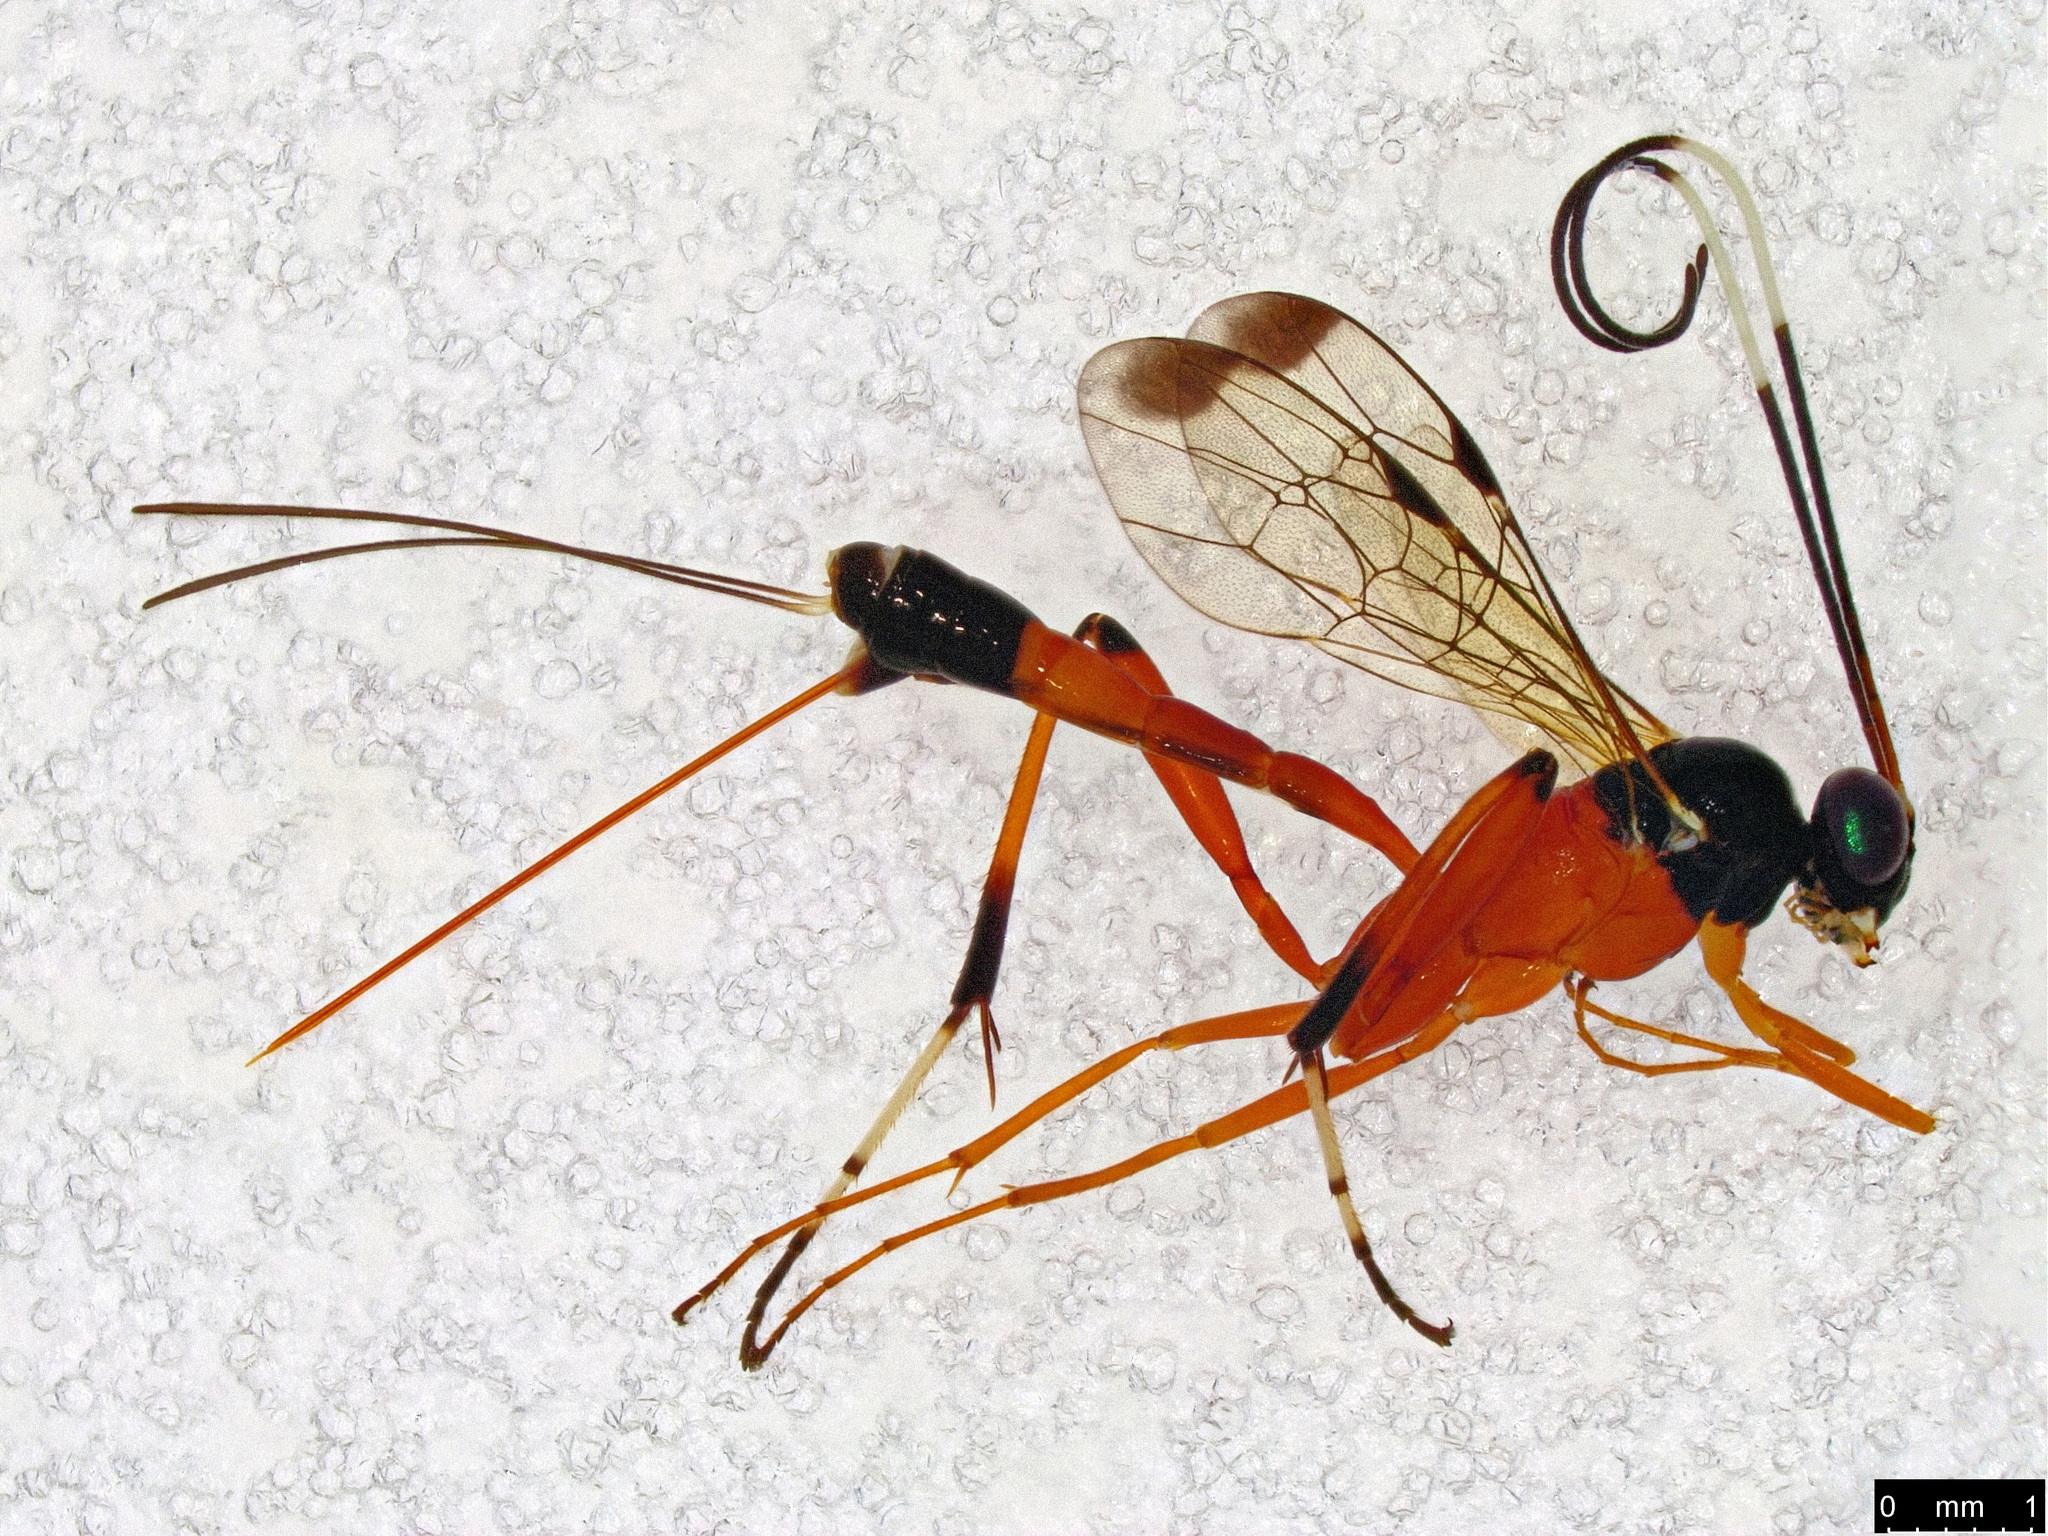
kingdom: Animalia
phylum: Arthropoda
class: Insecta
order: Hymenoptera
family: Ichneumonidae
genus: Leptobatopsis
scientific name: Leptobatopsis mesominiata
